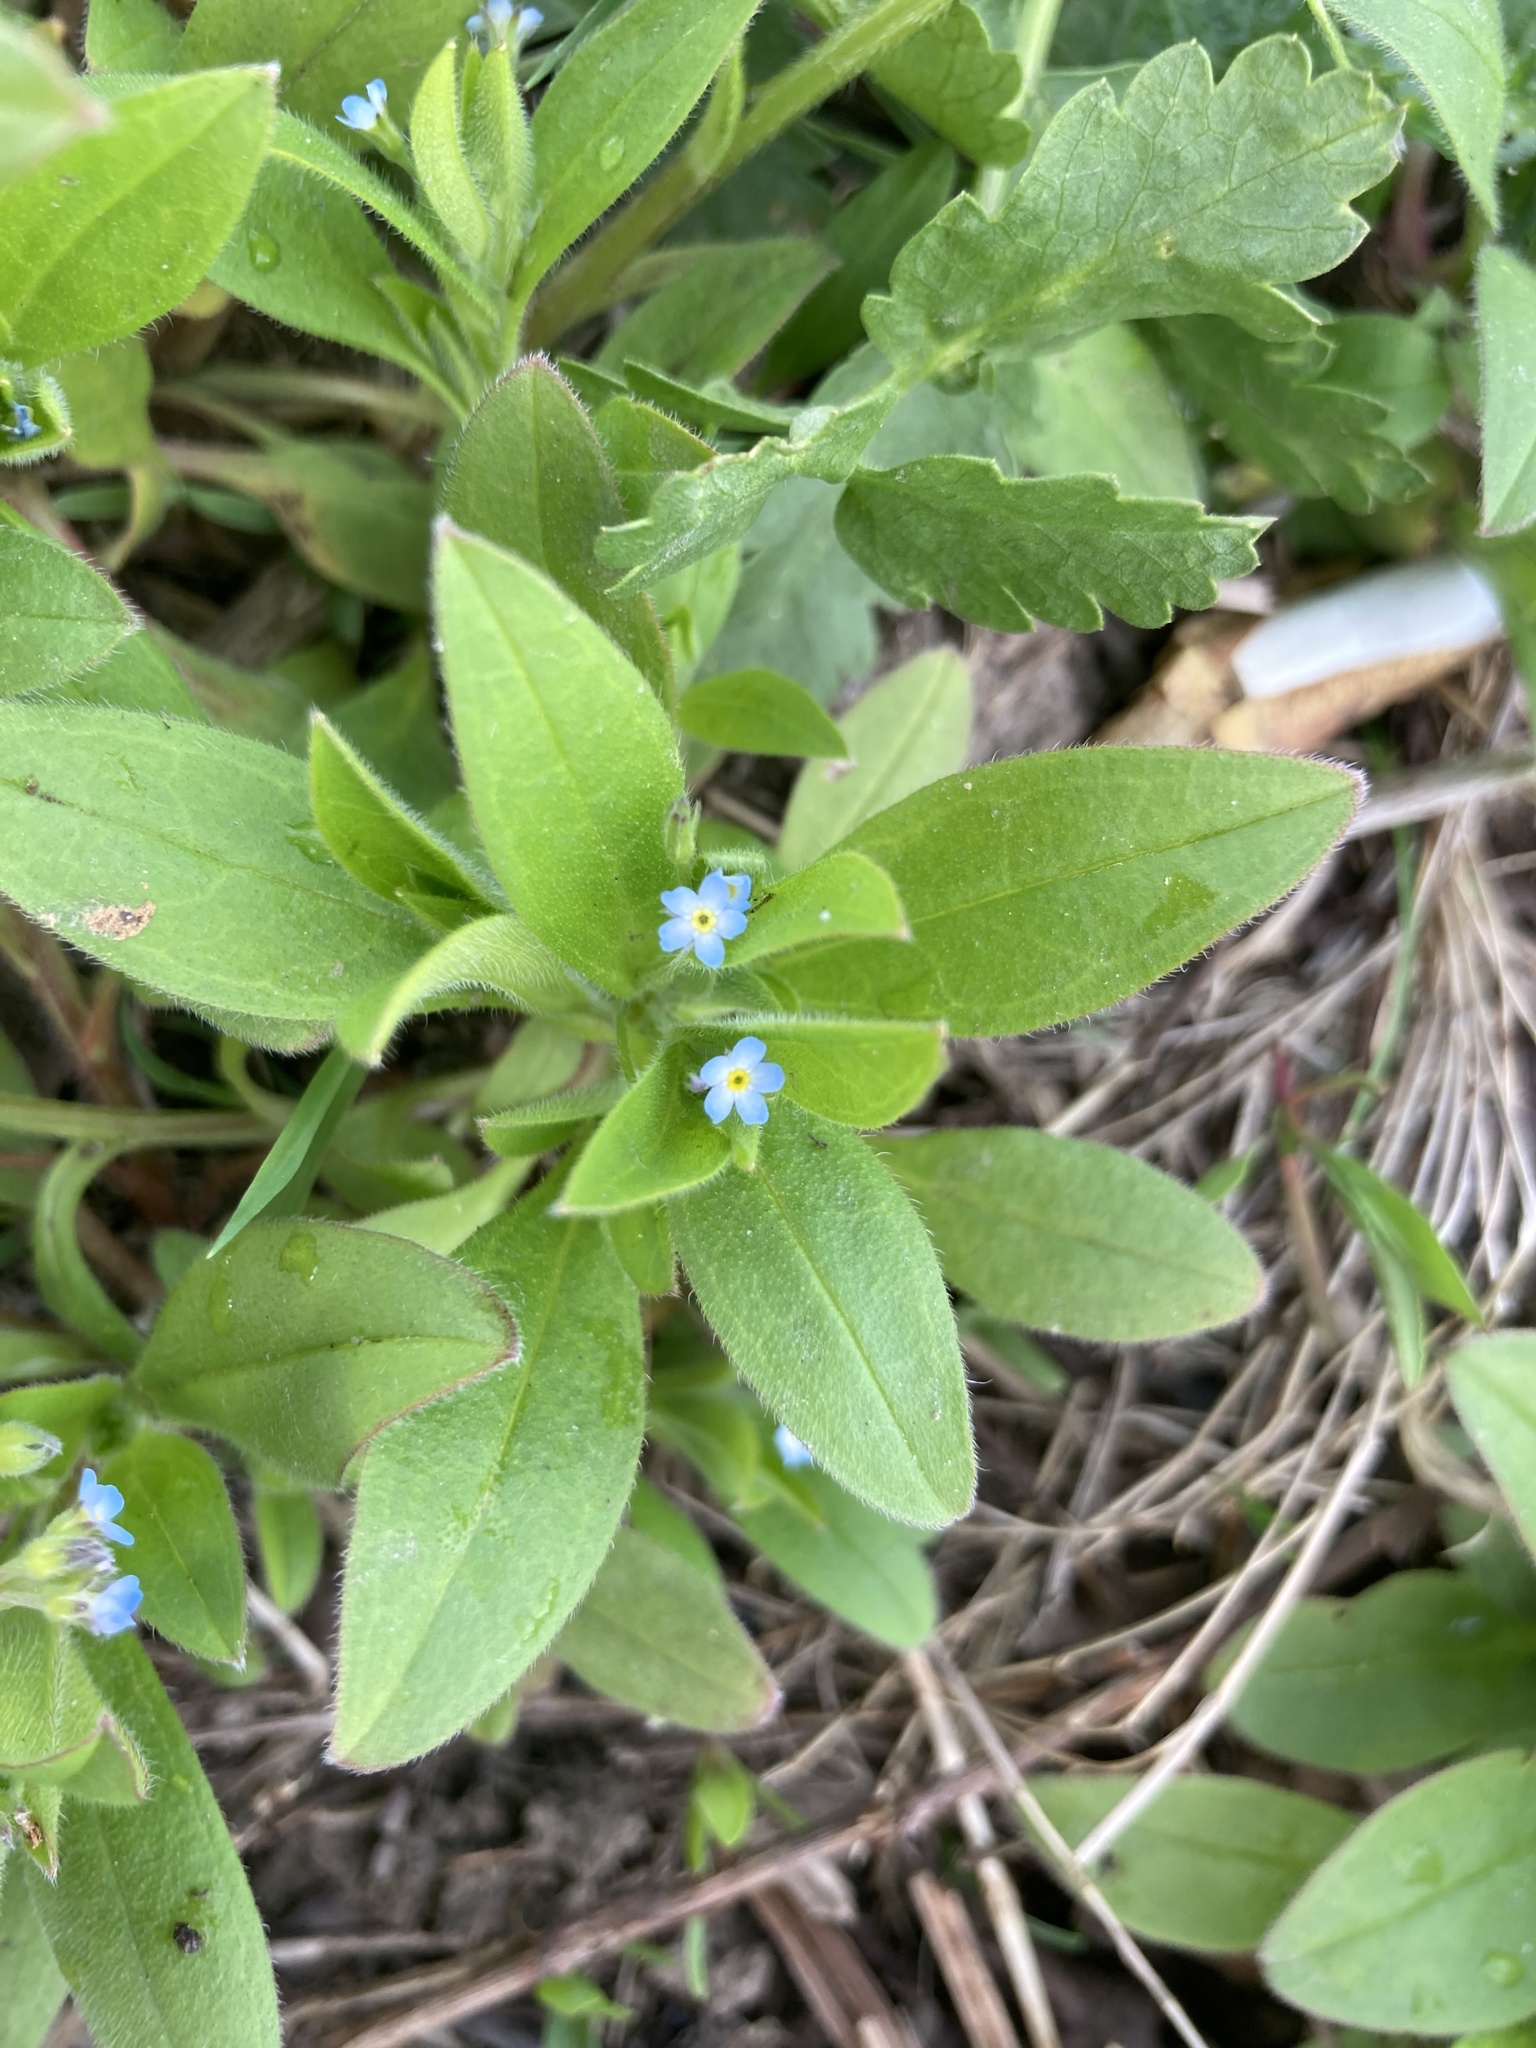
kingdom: Plantae
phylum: Tracheophyta
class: Magnoliopsida
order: Boraginales
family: Boraginaceae
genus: Myosotis
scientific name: Myosotis sparsiflora
